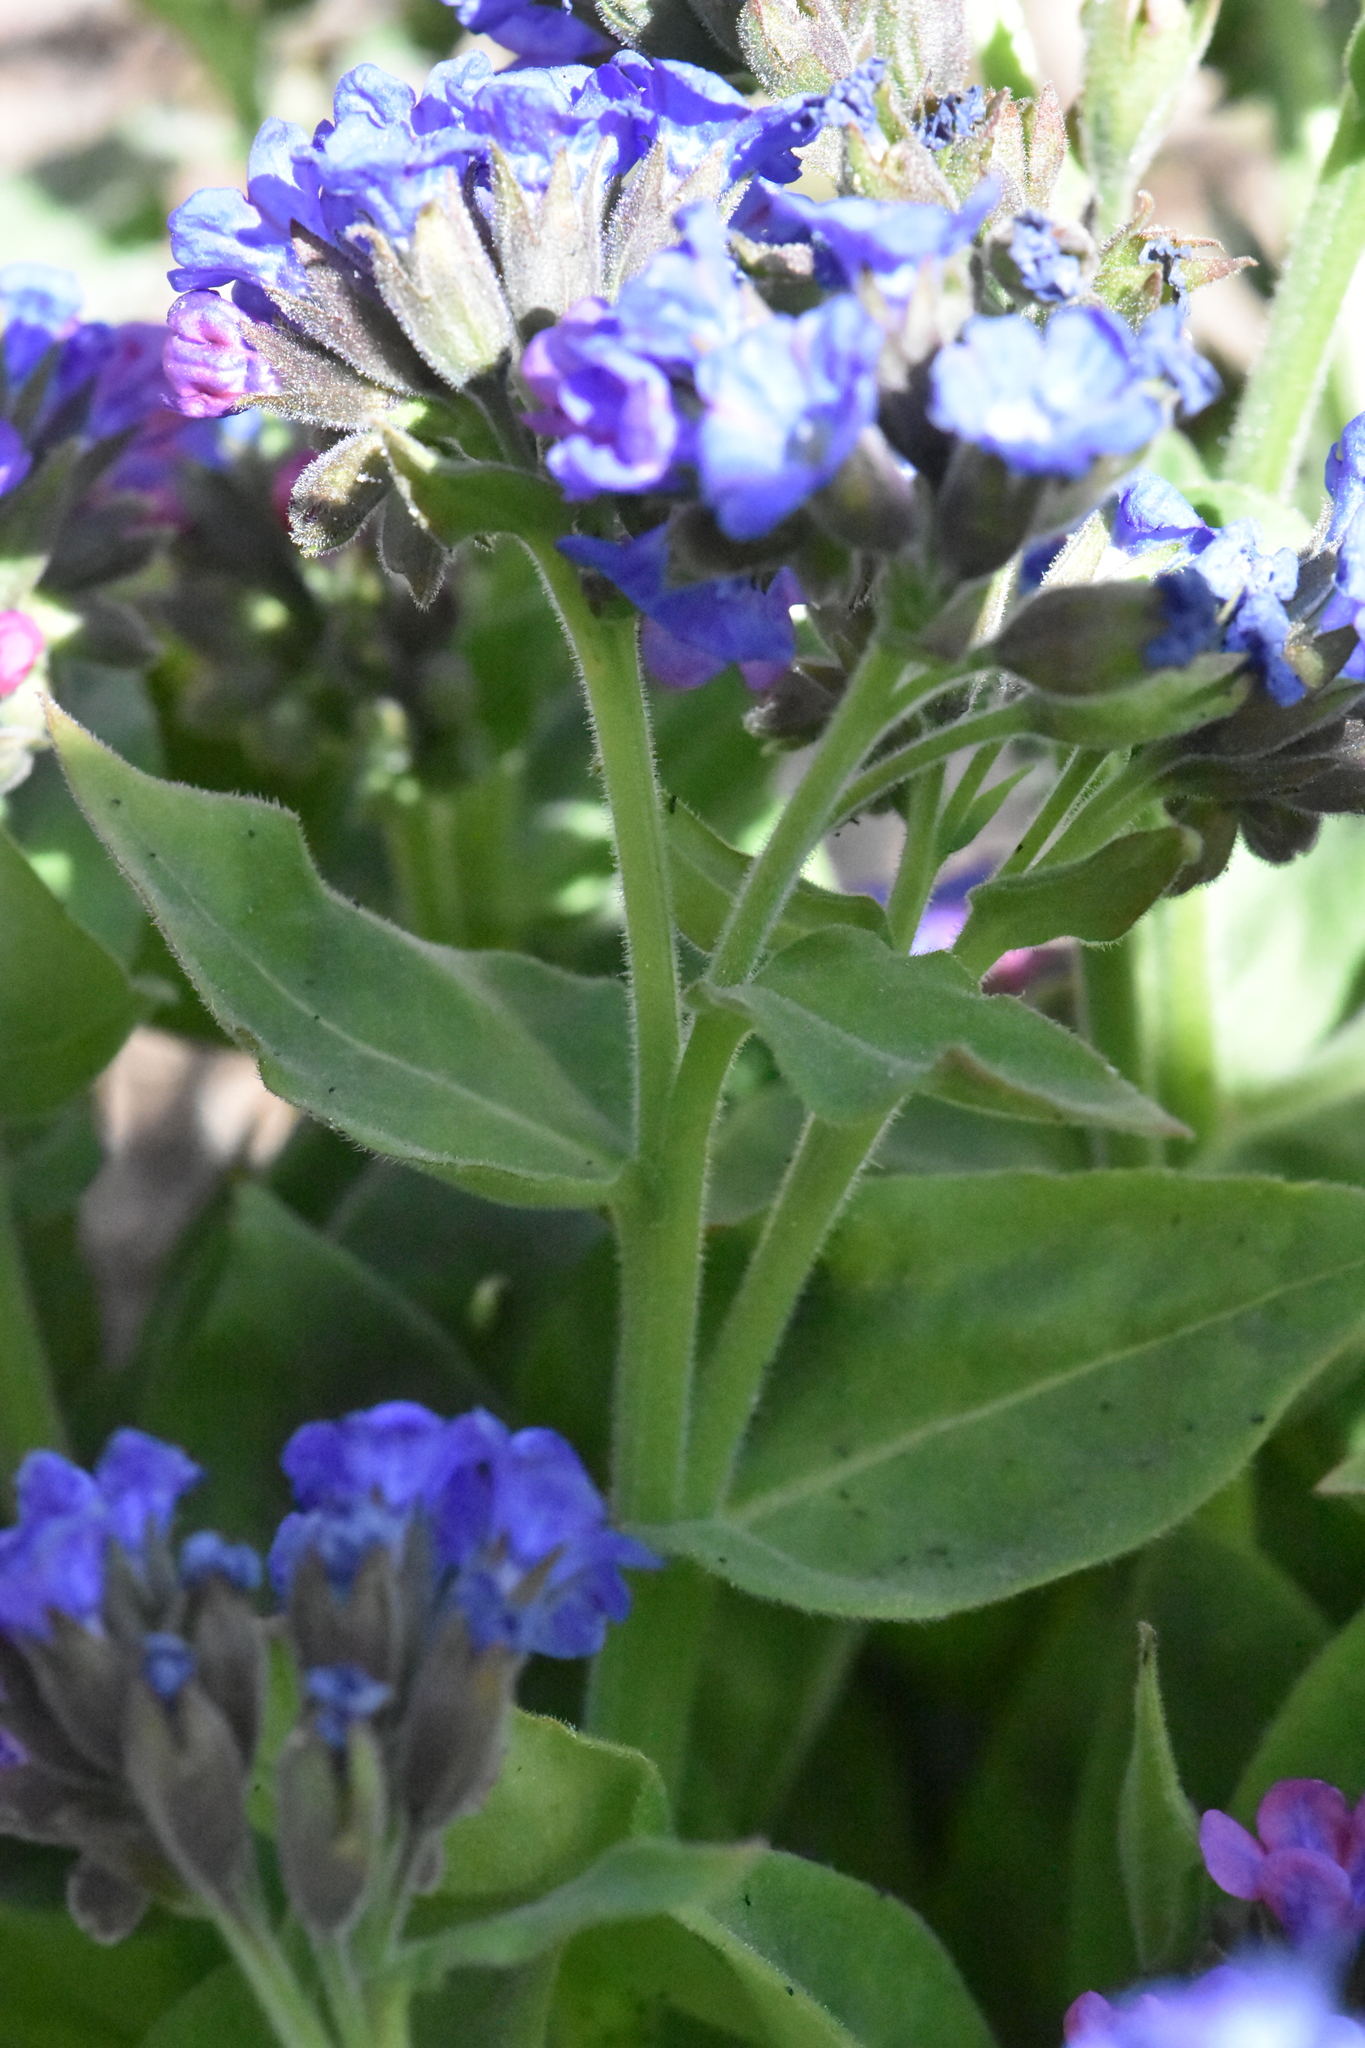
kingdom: Plantae
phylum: Tracheophyta
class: Magnoliopsida
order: Boraginales
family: Boraginaceae
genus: Pulmonaria
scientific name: Pulmonaria mollis
